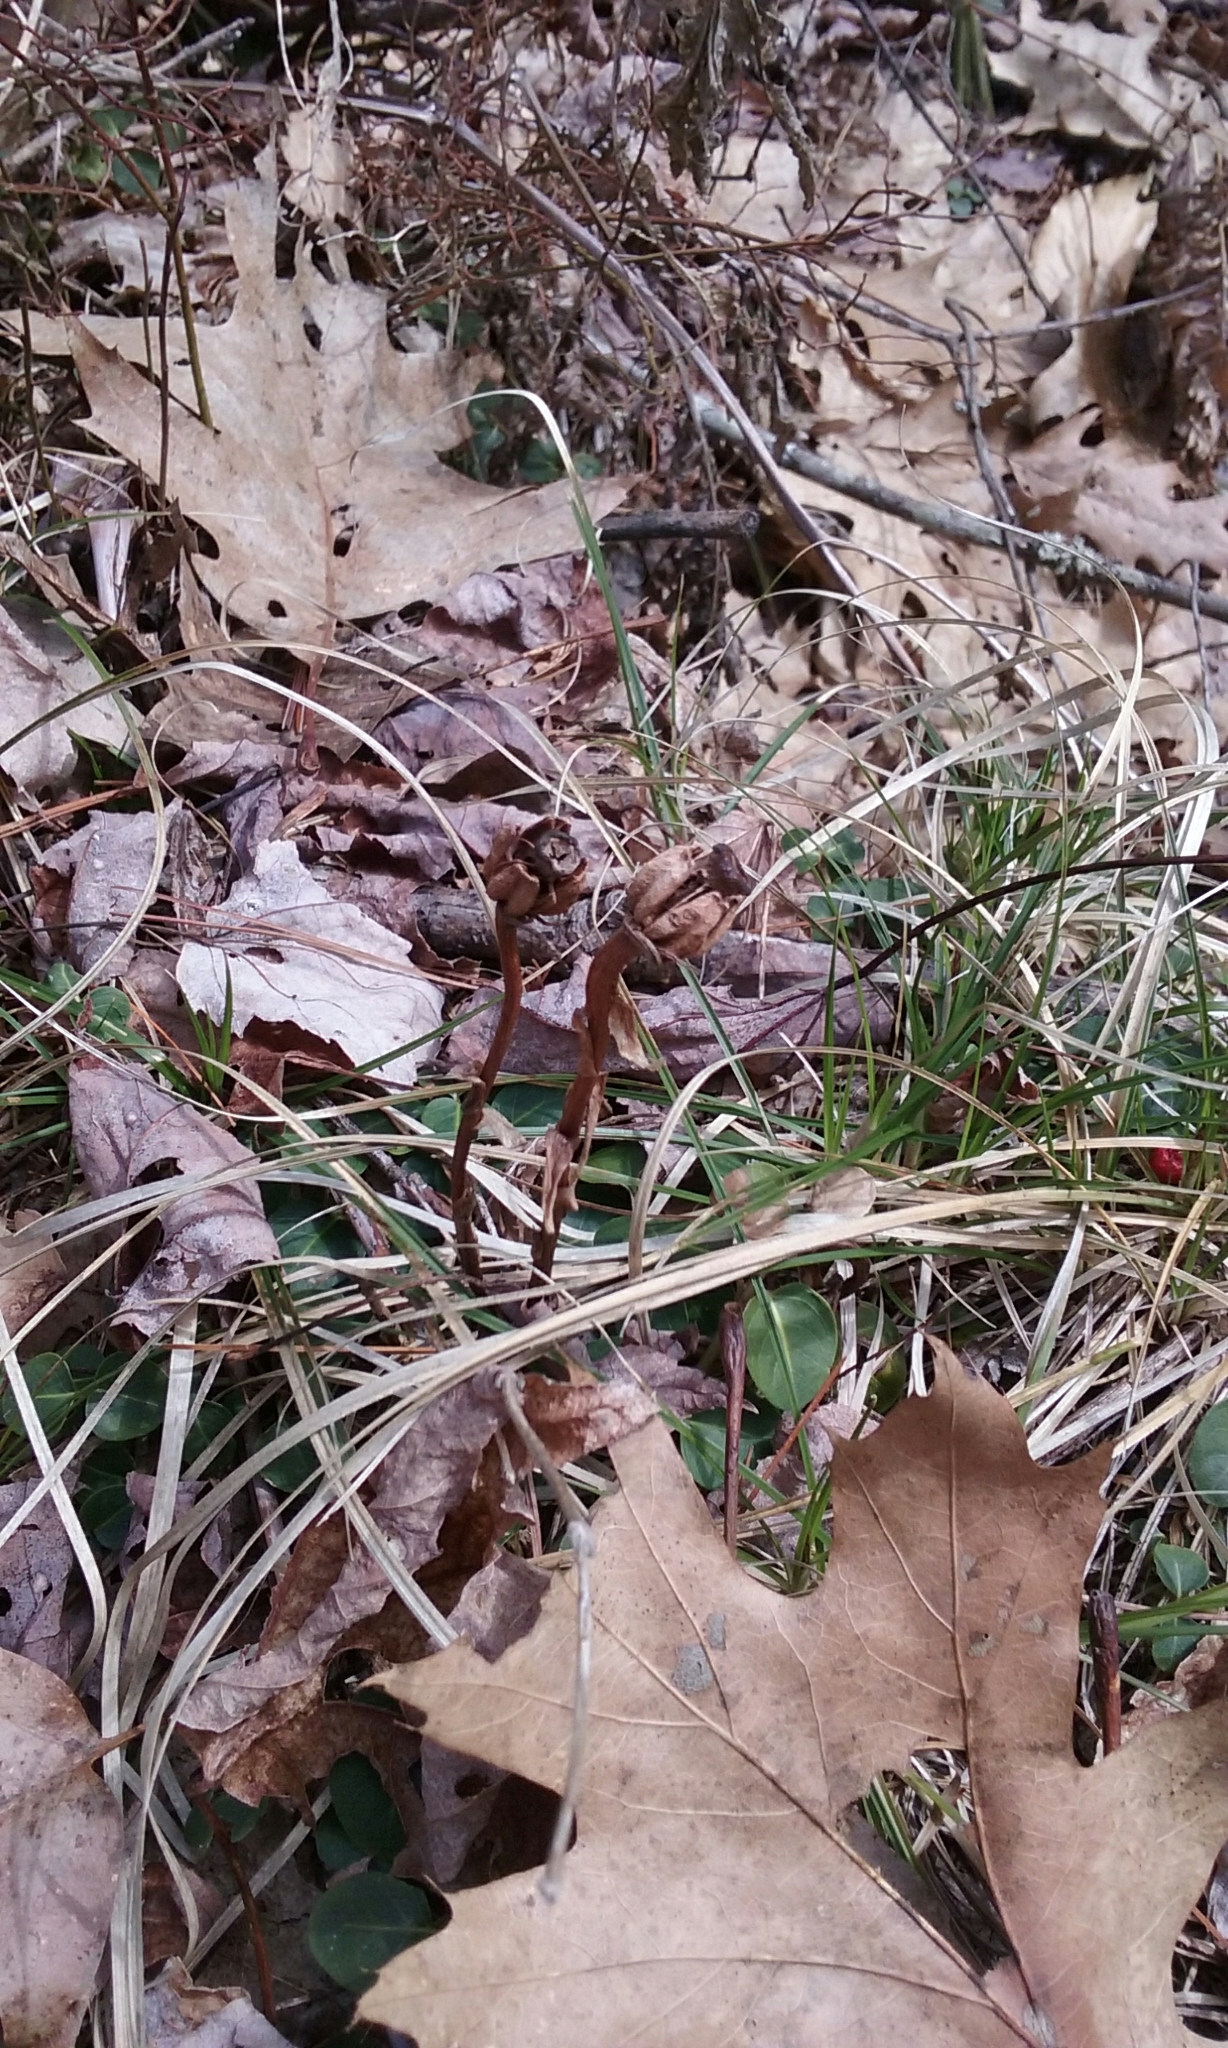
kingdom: Plantae
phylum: Tracheophyta
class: Magnoliopsida
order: Ericales
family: Ericaceae
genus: Monotropa
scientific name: Monotropa uniflora
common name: Convulsion root
